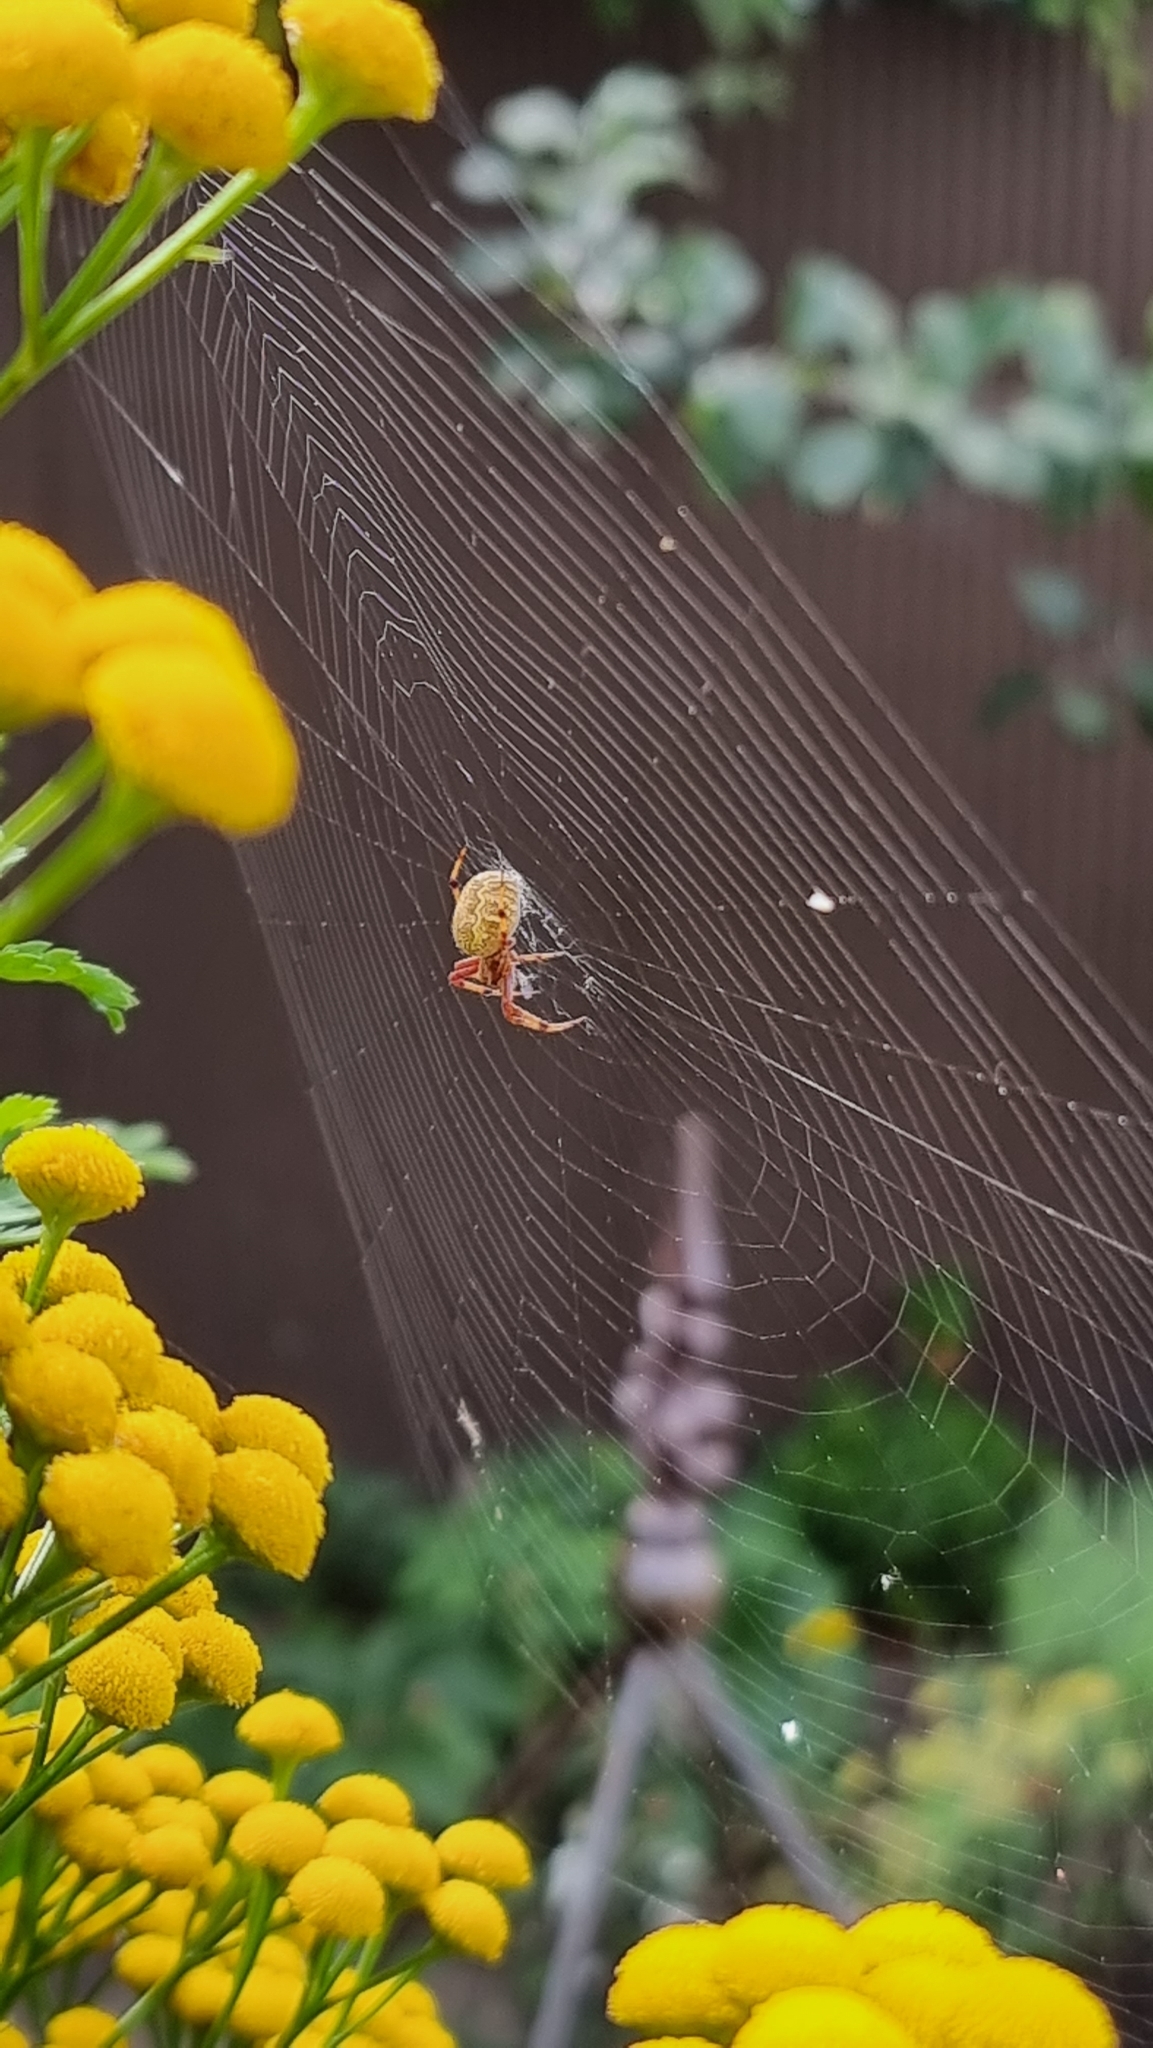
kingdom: Animalia
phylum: Arthropoda
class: Arachnida
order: Araneae
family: Araneidae
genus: Salsa
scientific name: Salsa fuliginata
